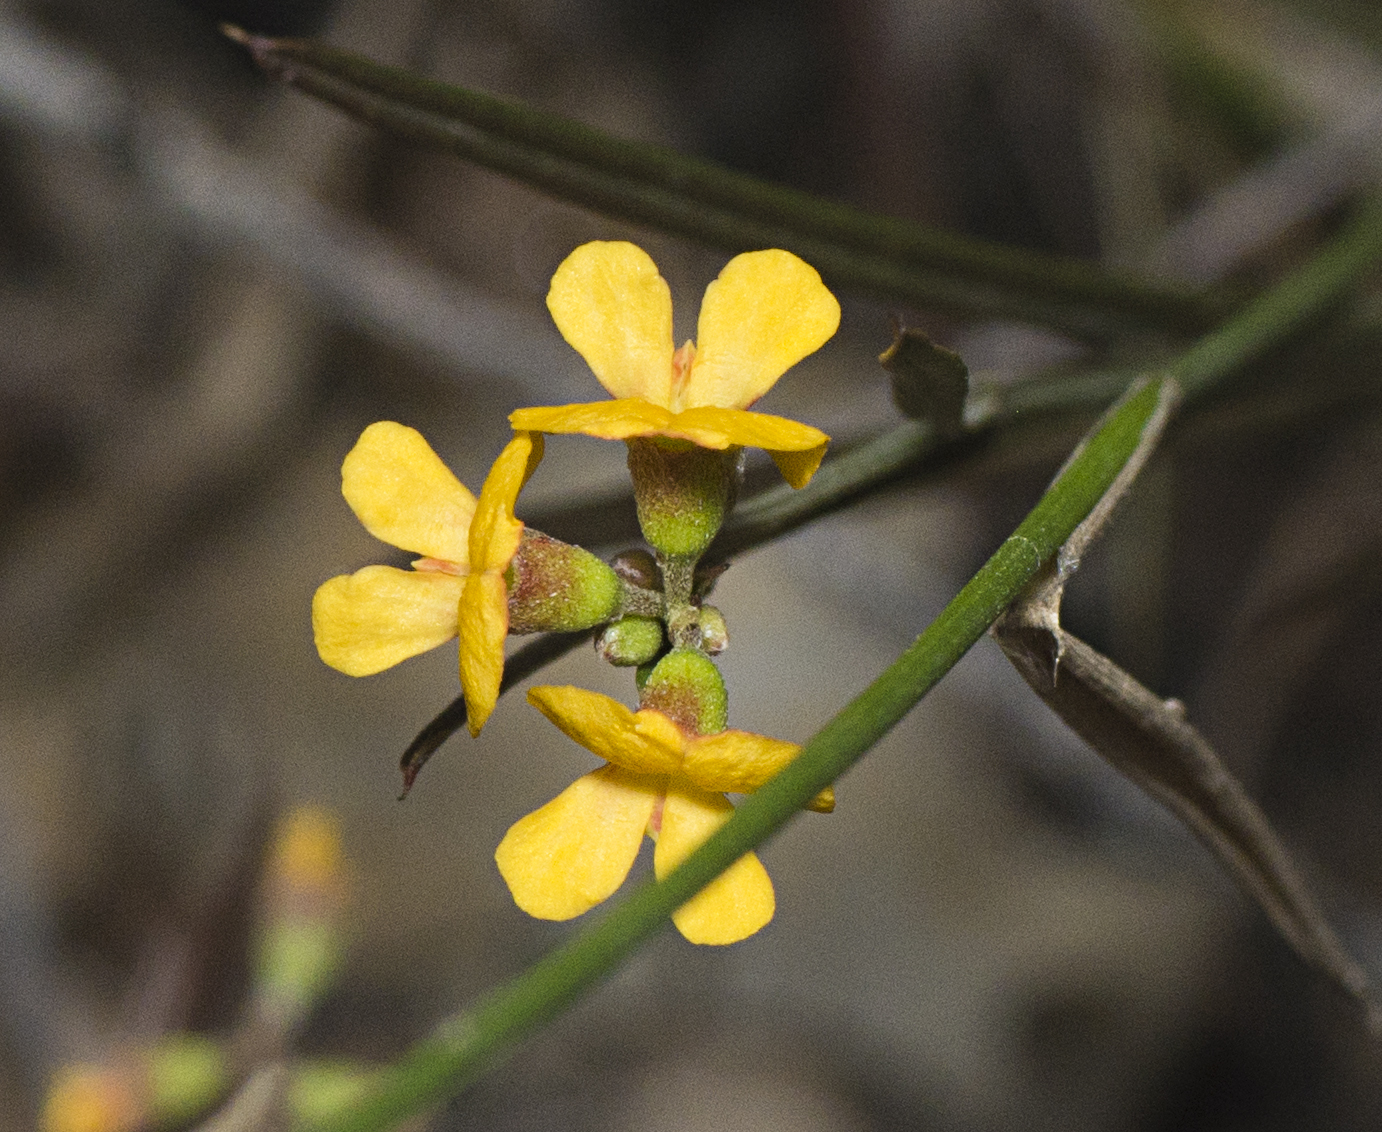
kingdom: Plantae
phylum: Tracheophyta
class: Magnoliopsida
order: Fabales
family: Fabaceae
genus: Chorizema
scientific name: Chorizema parviflorum
